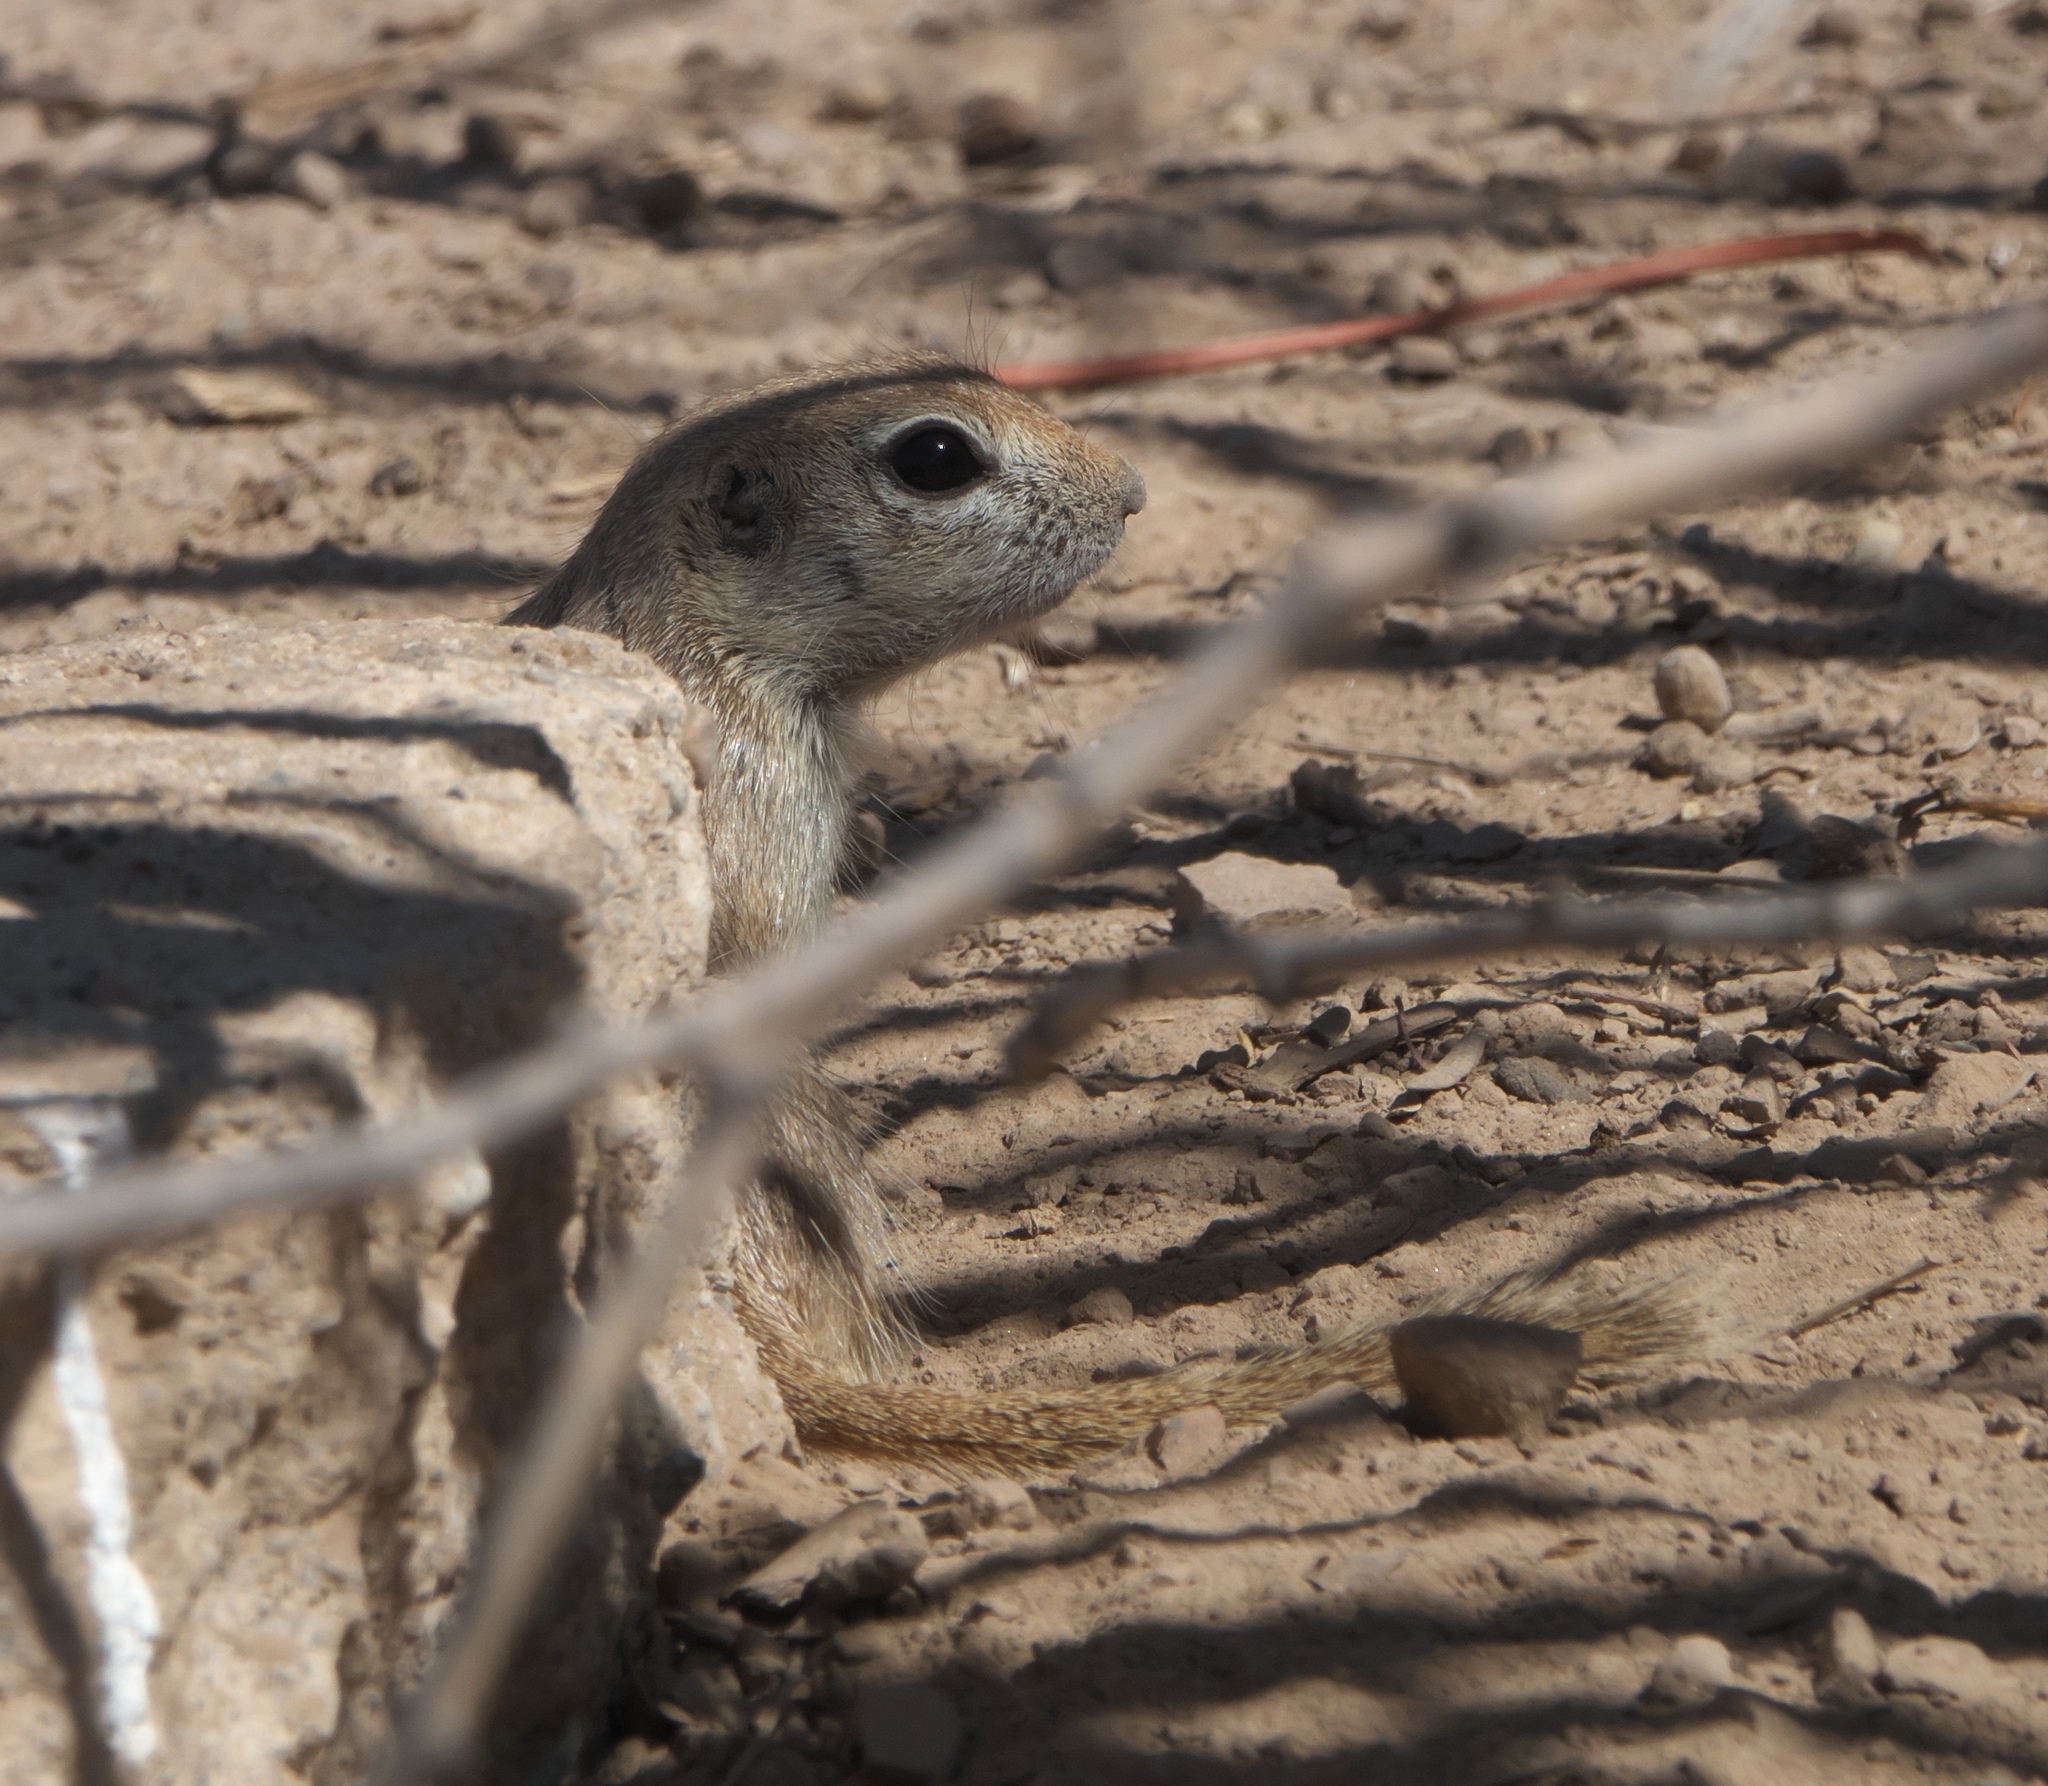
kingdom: Animalia
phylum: Chordata
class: Mammalia
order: Rodentia
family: Sciuridae
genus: Xerospermophilus
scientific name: Xerospermophilus tereticaudus
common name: Round-tailed ground squirrel
